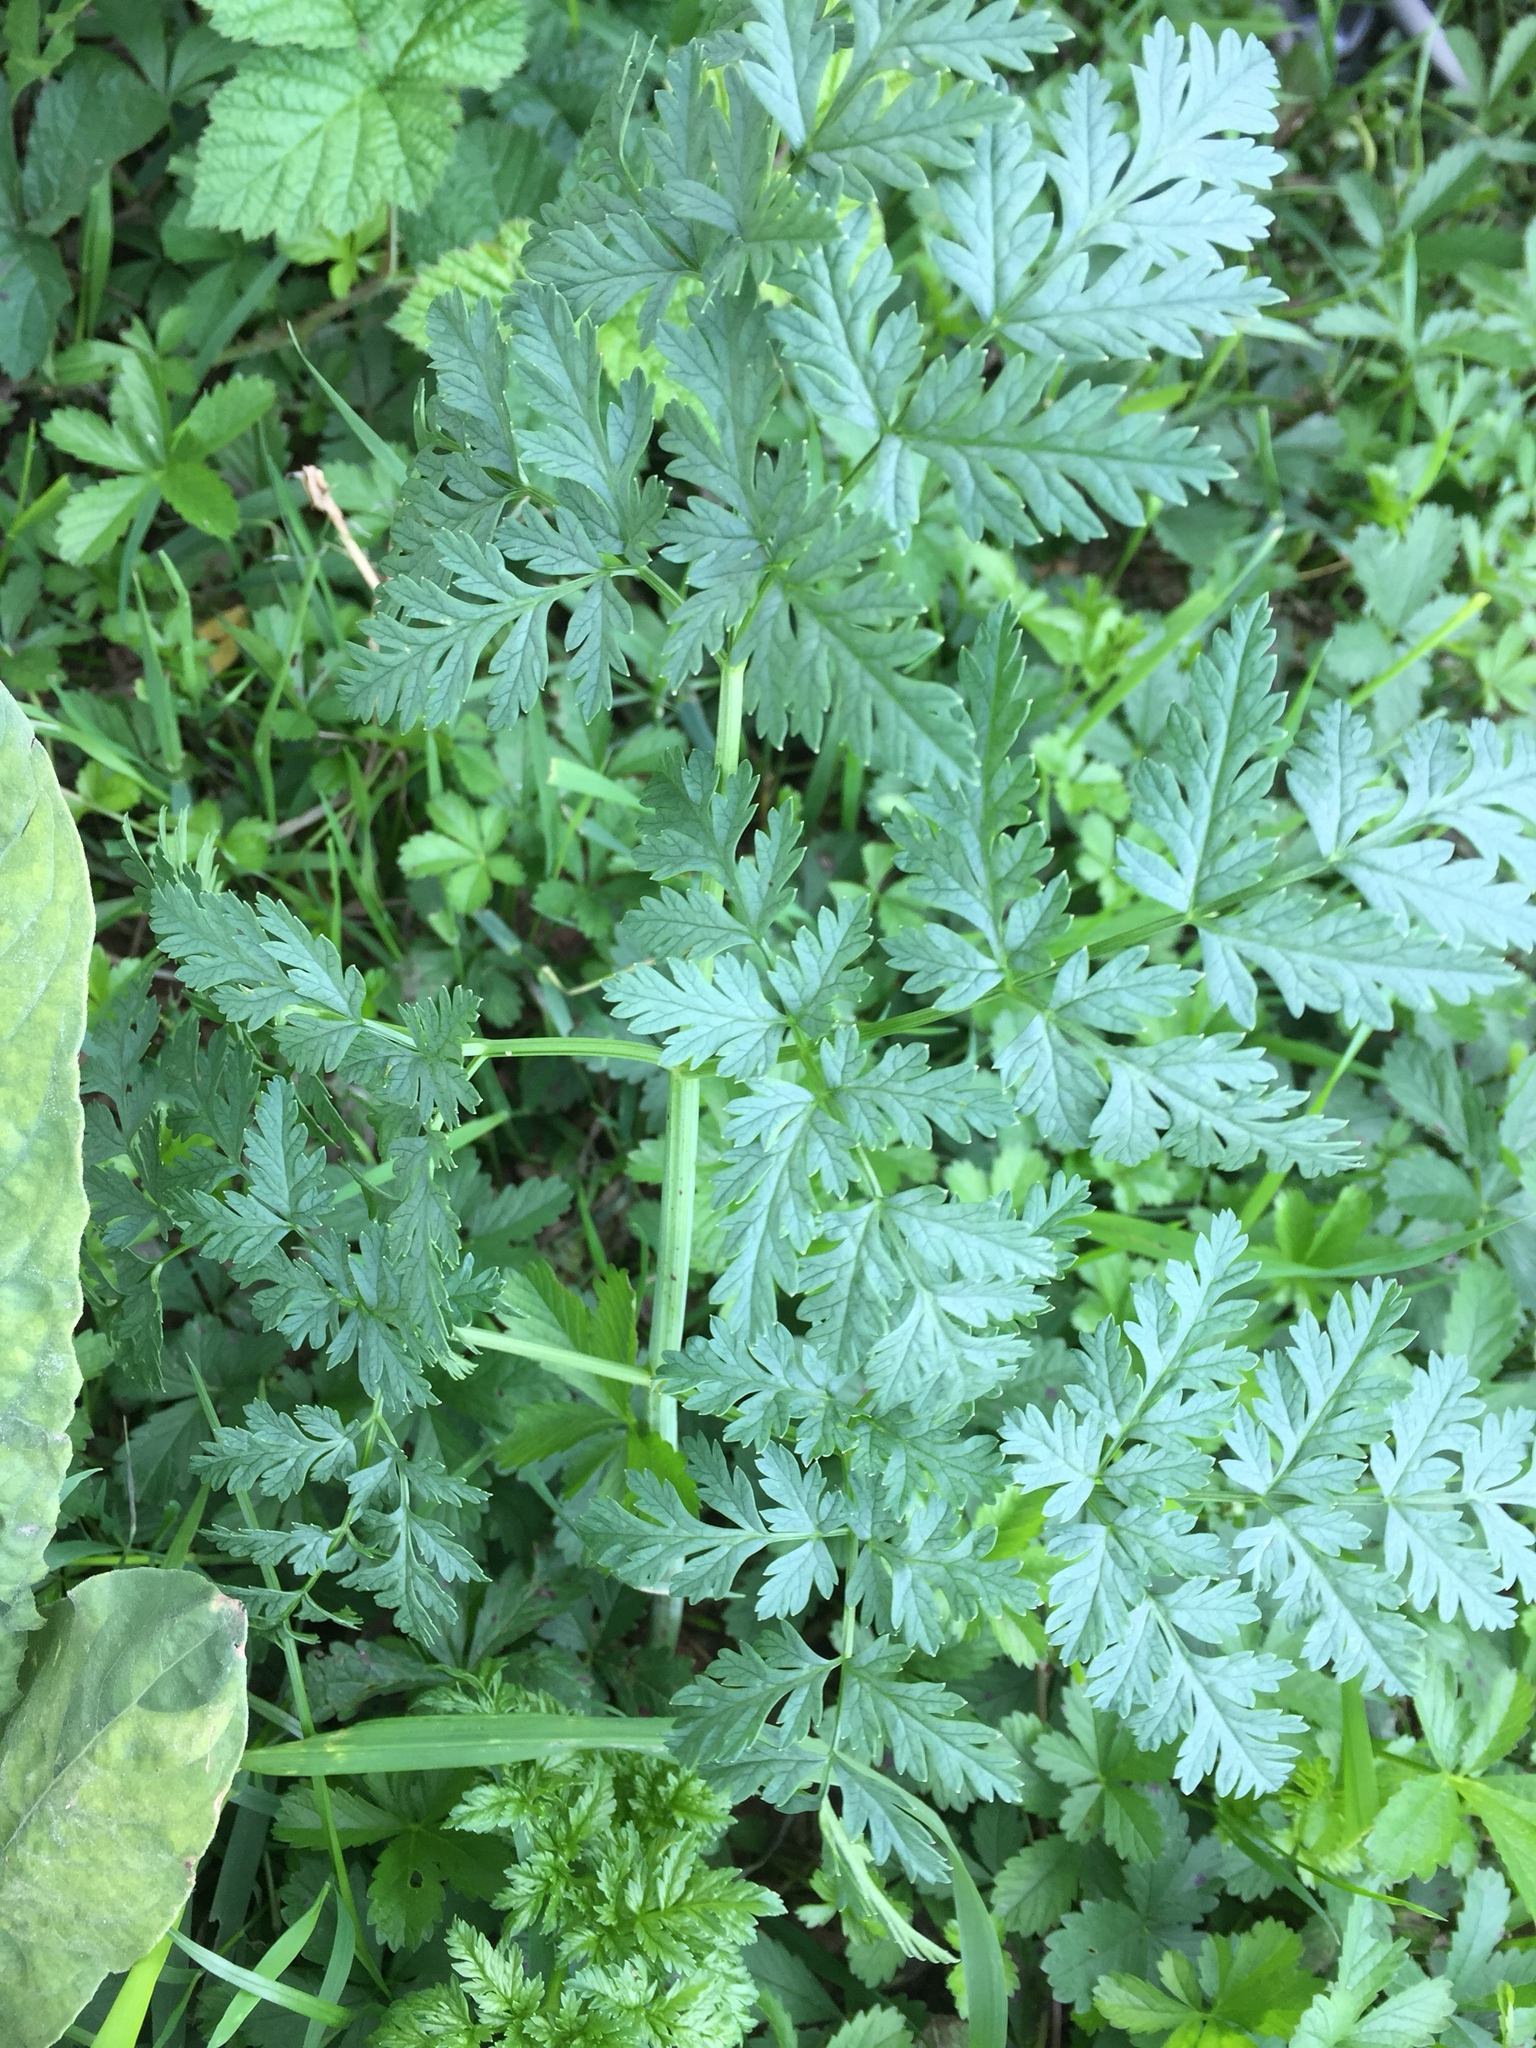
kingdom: Plantae
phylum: Tracheophyta
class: Magnoliopsida
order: Apiales
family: Apiaceae
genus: Anthriscus
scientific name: Anthriscus sylvestris
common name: Cow parsley
